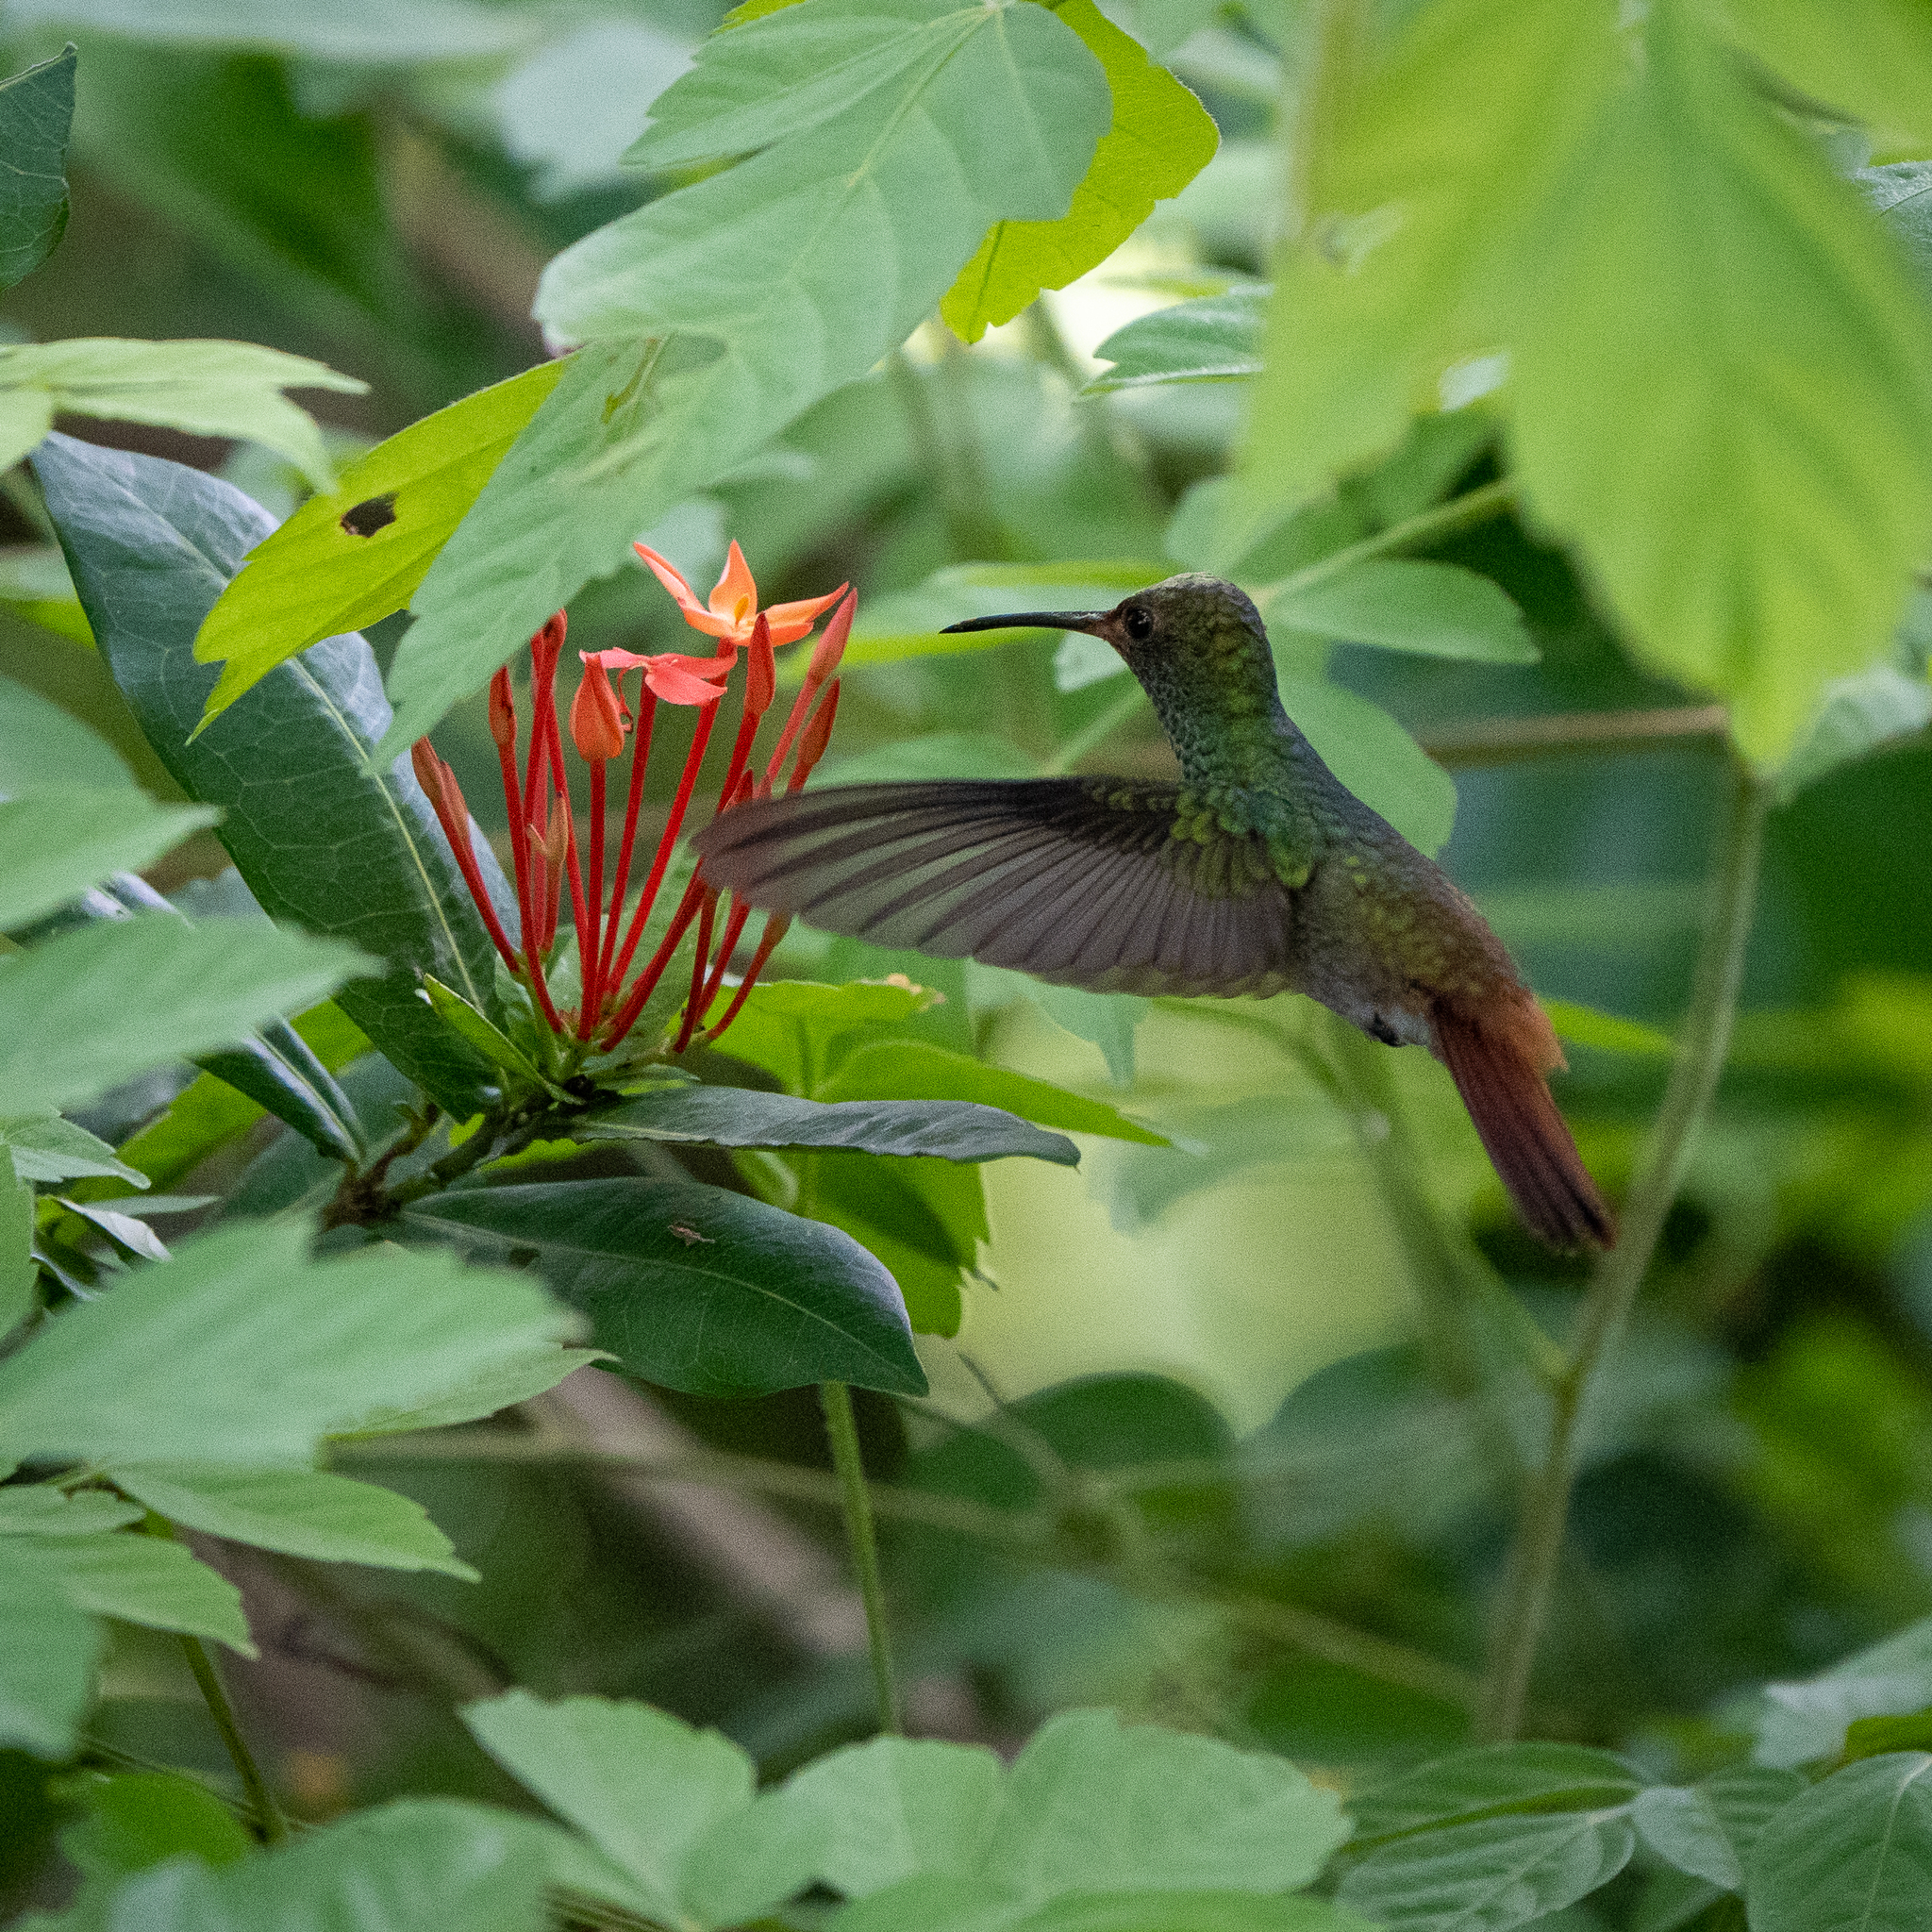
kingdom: Animalia
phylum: Chordata
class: Aves
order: Apodiformes
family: Trochilidae
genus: Amazilia
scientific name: Amazilia tzacatl
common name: Rufous-tailed hummingbird
